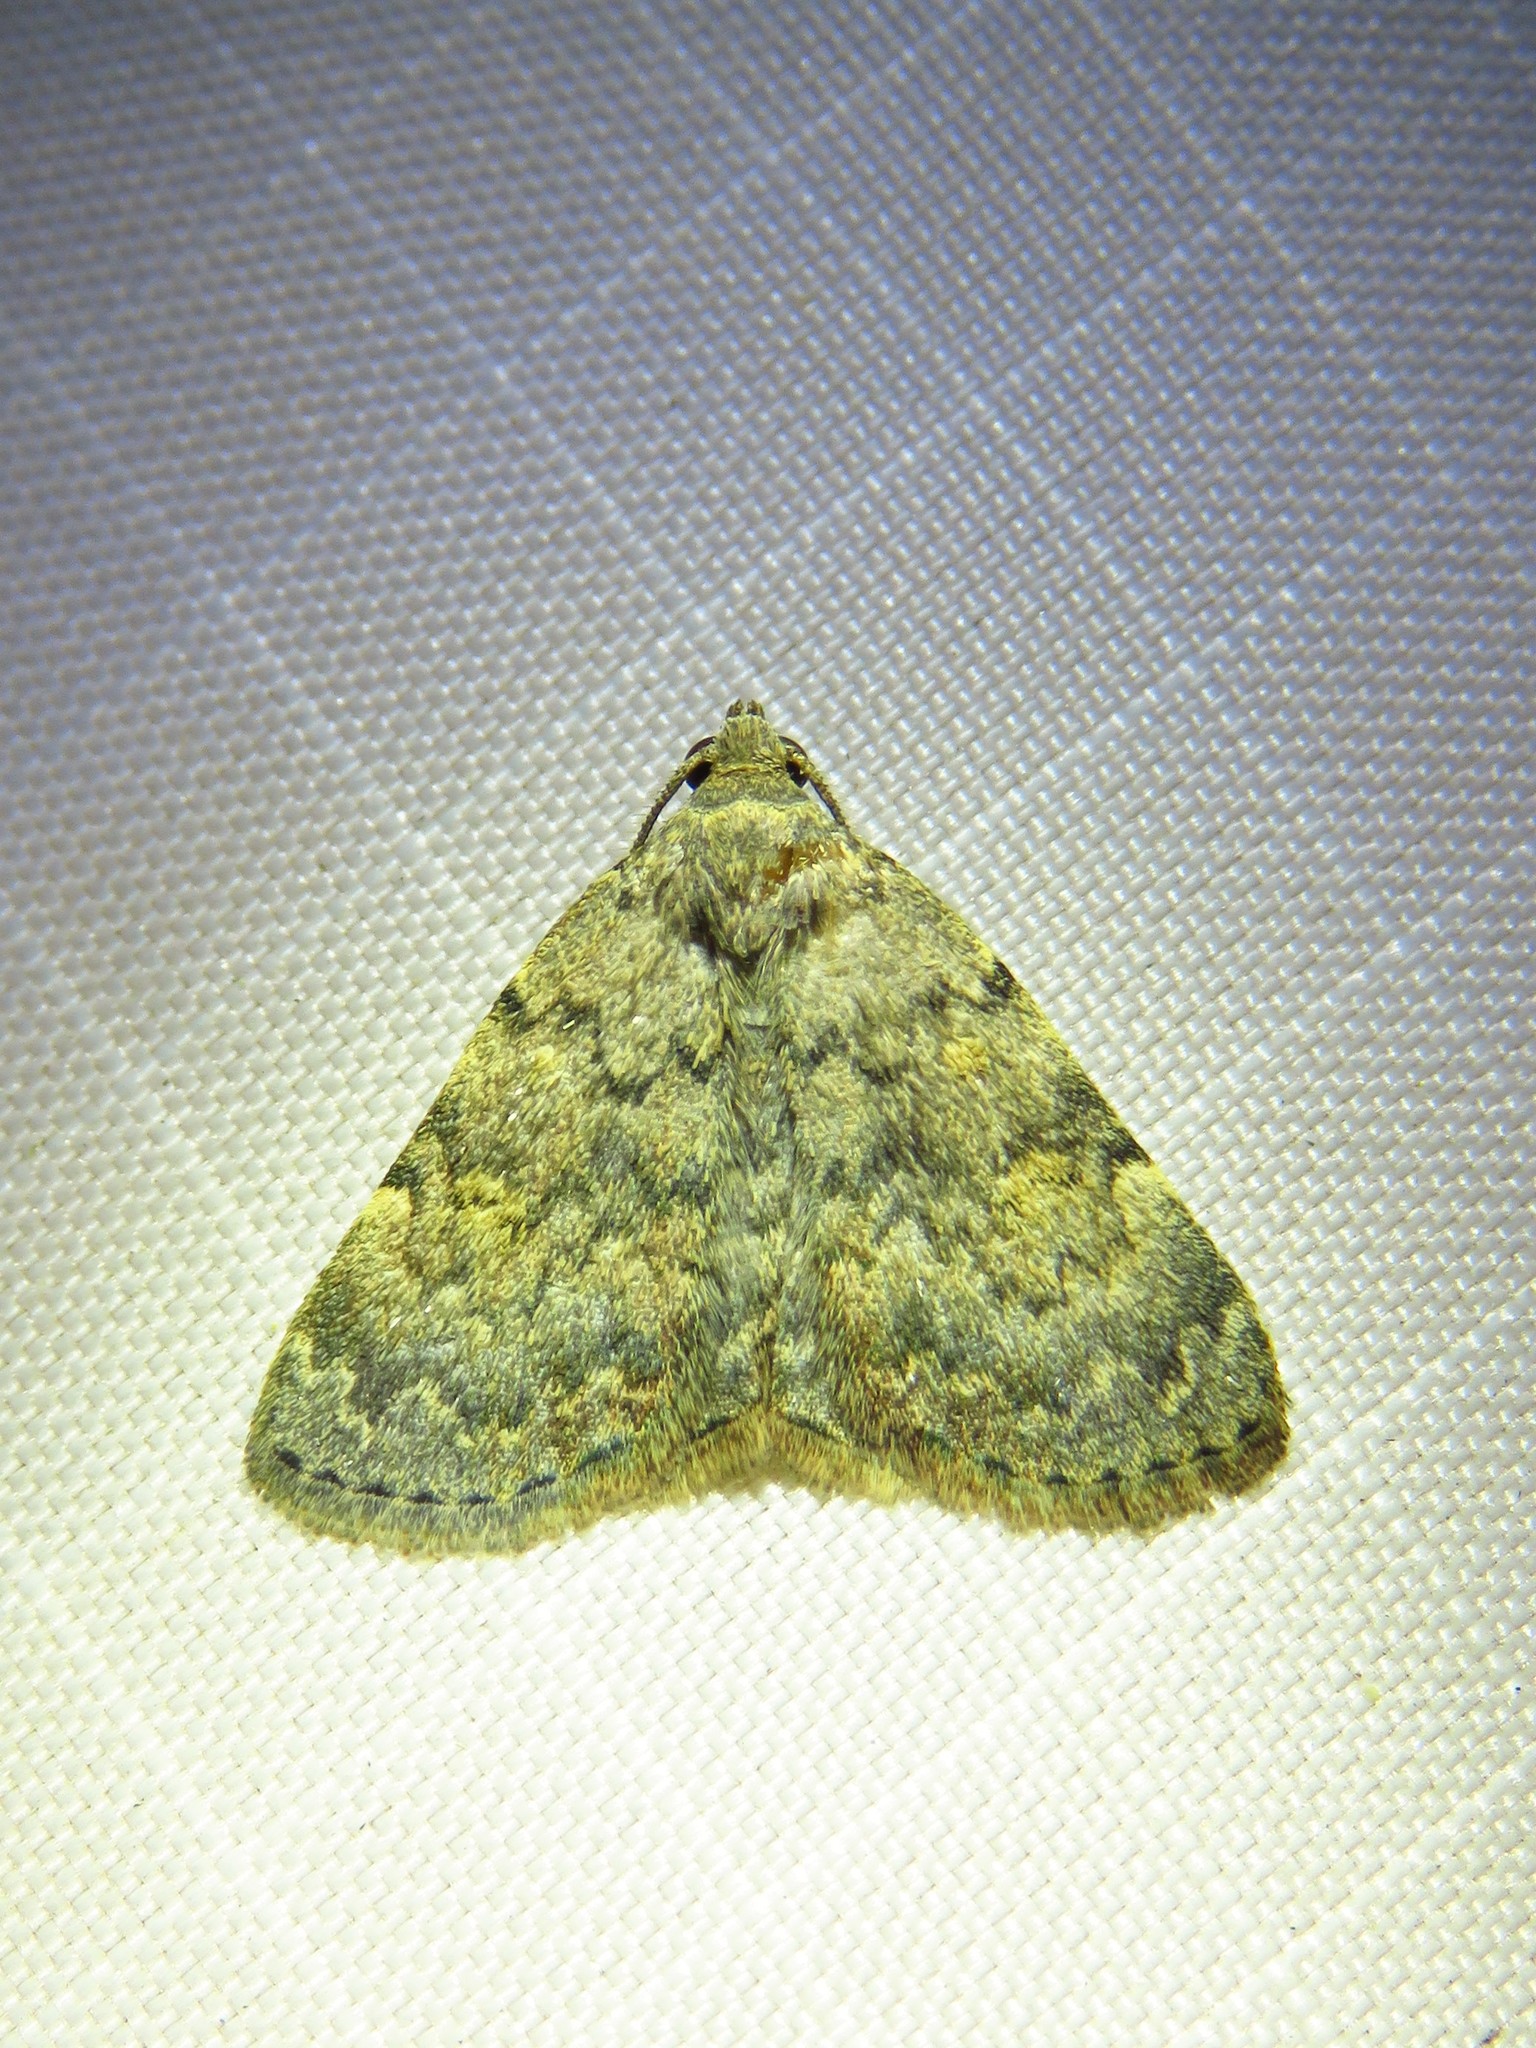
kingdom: Animalia
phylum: Arthropoda
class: Insecta
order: Lepidoptera
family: Erebidae
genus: Idia
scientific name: Idia aemula
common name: Common idia moth
